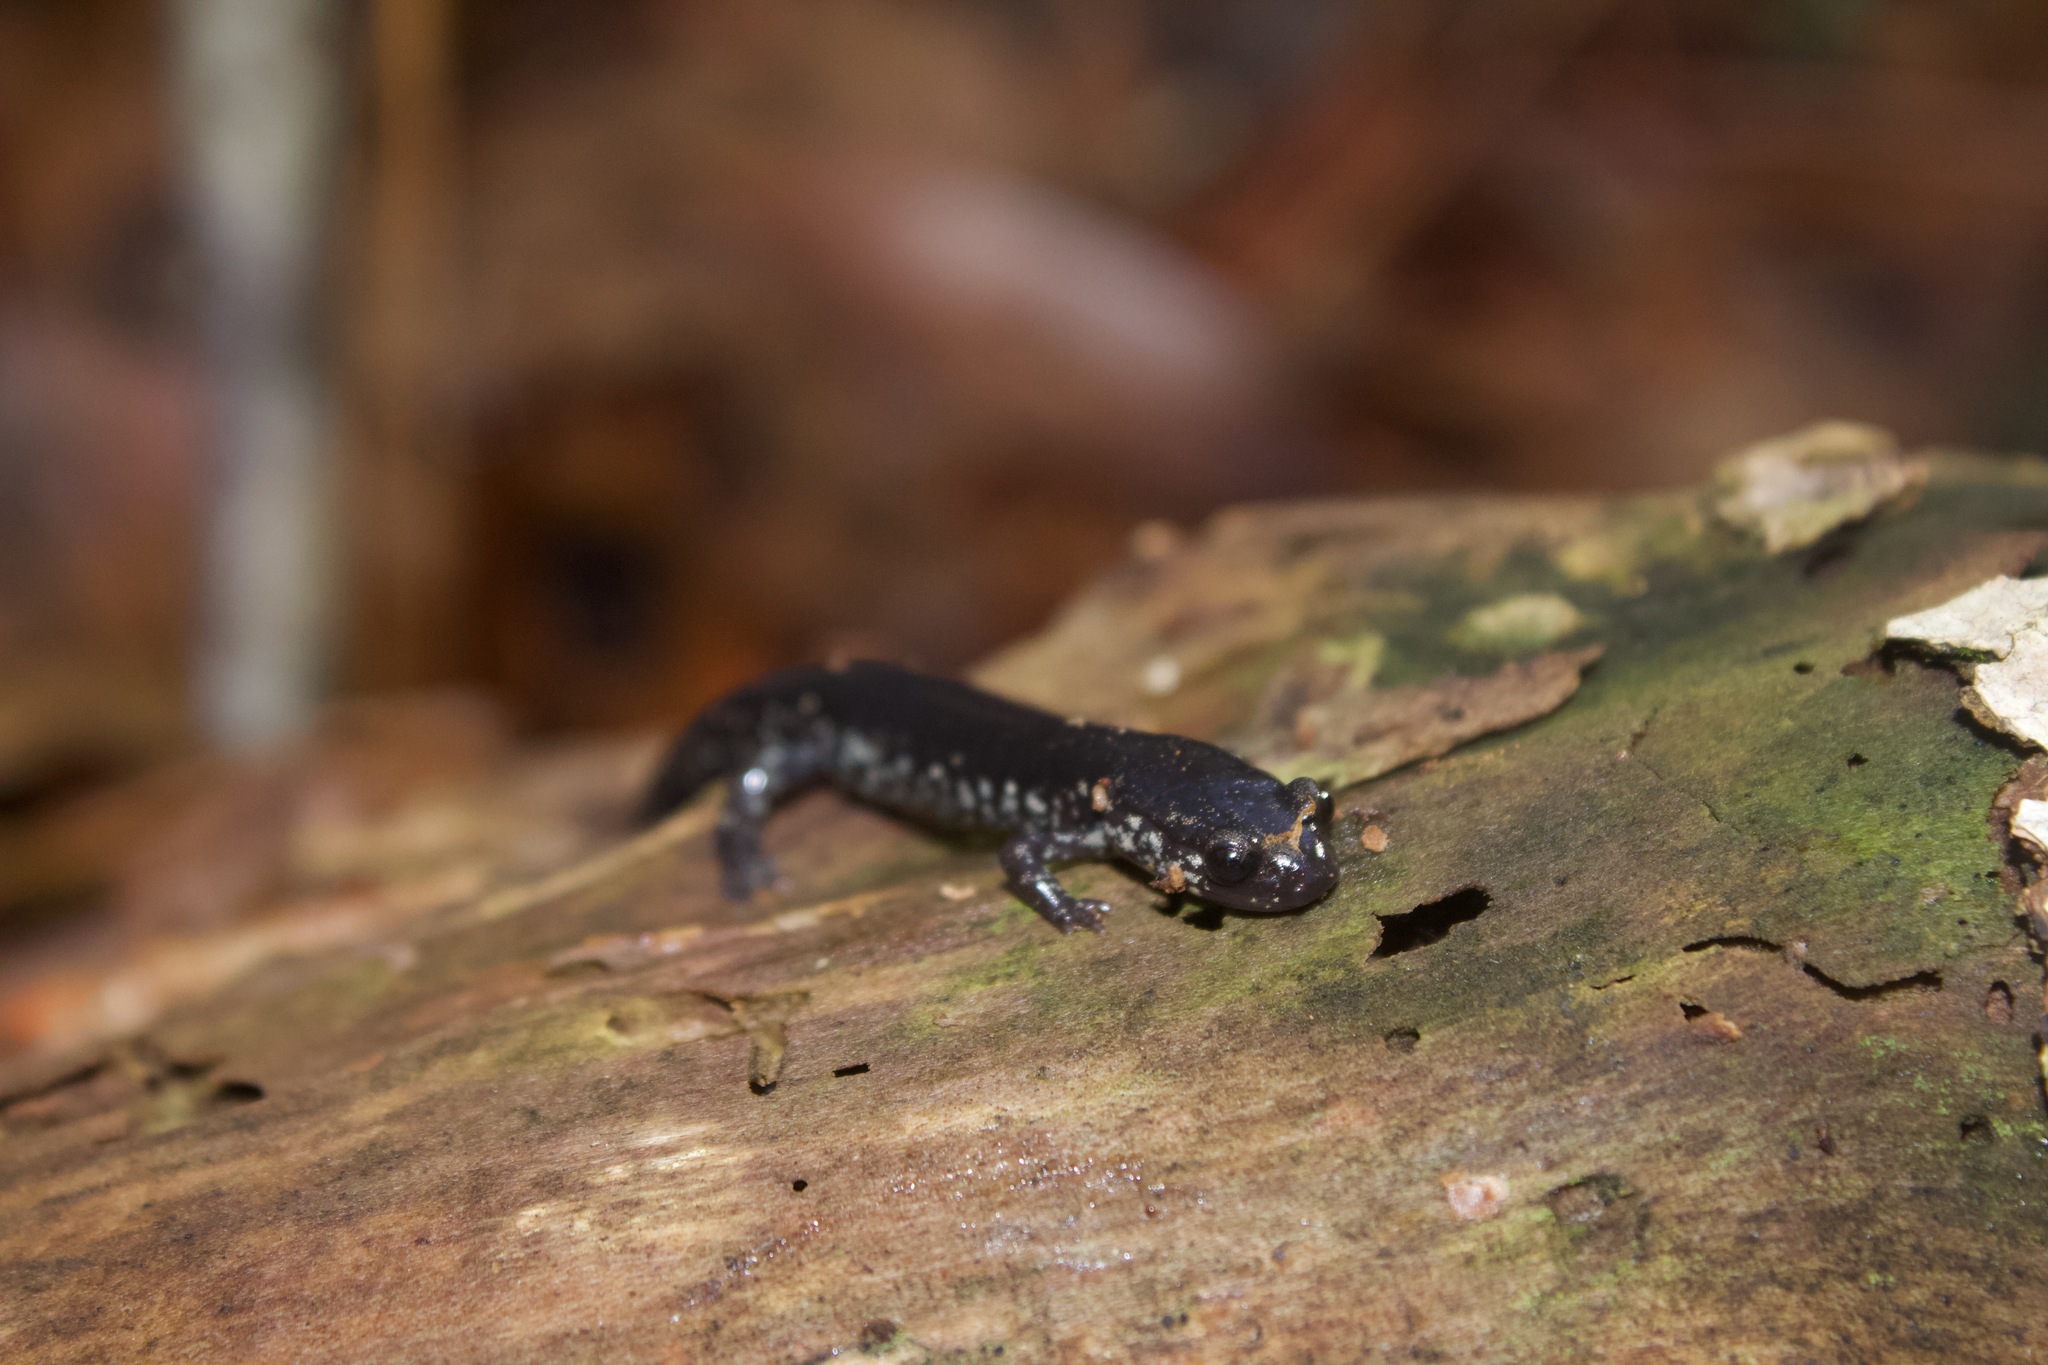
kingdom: Animalia
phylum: Chordata
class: Amphibia
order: Caudata
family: Plethodontidae
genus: Plethodon
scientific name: Plethodon mississippi
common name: Mississippi slimy salamander
